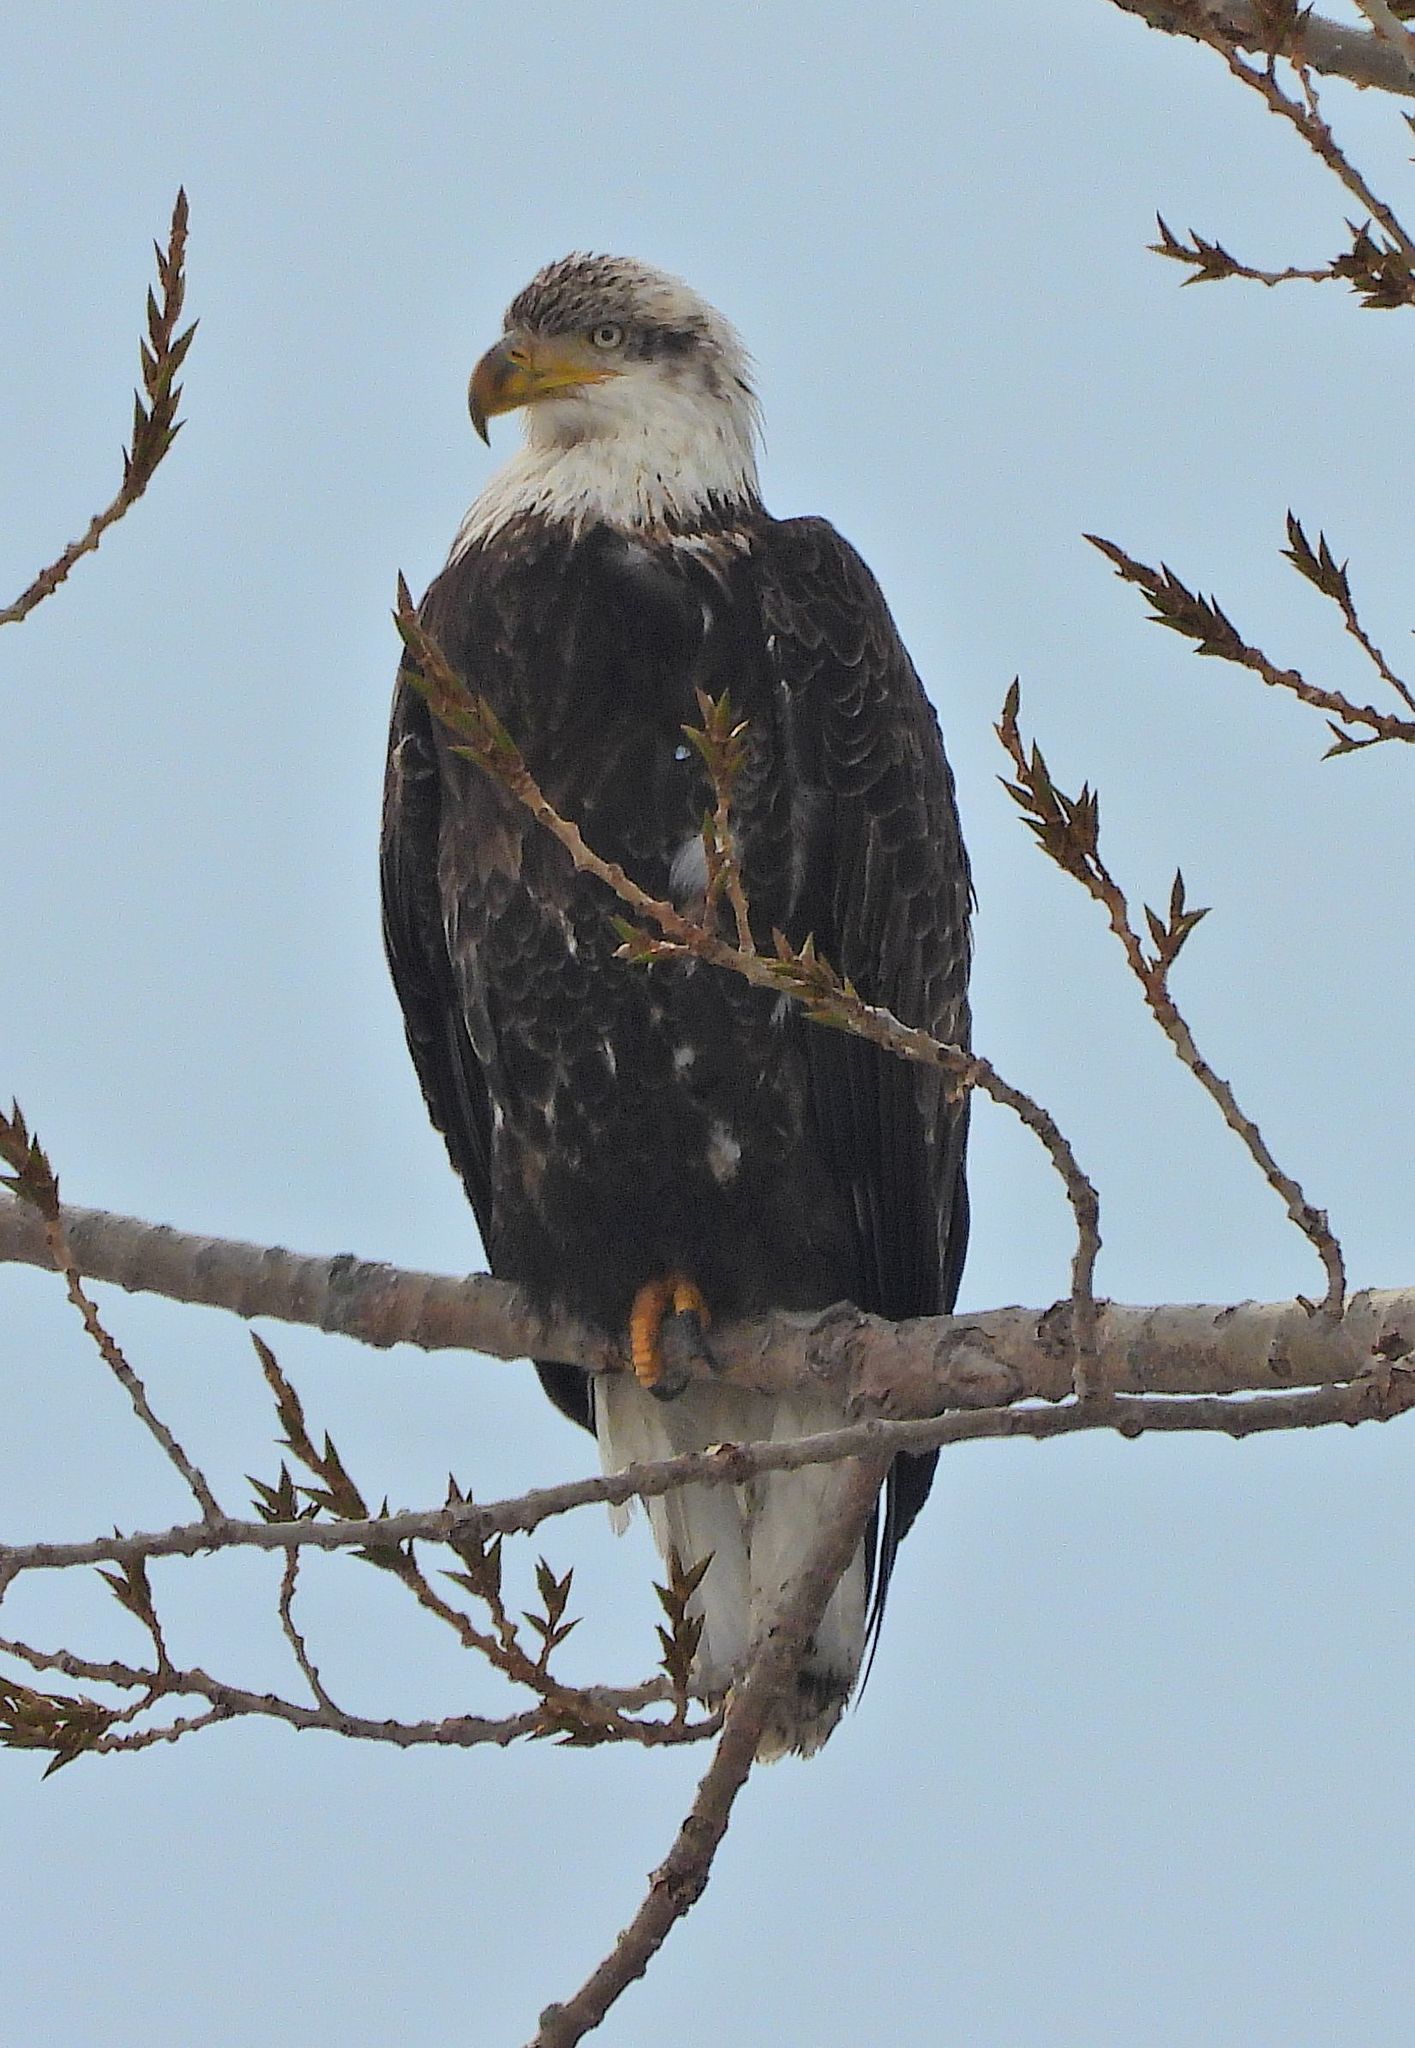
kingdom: Animalia
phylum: Chordata
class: Aves
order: Accipitriformes
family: Accipitridae
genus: Haliaeetus
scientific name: Haliaeetus leucocephalus
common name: Bald eagle
